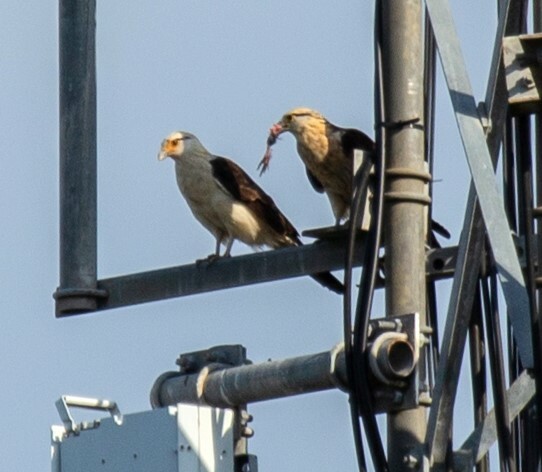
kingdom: Animalia
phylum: Chordata
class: Aves
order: Falconiformes
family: Falconidae
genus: Daptrius
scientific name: Daptrius
